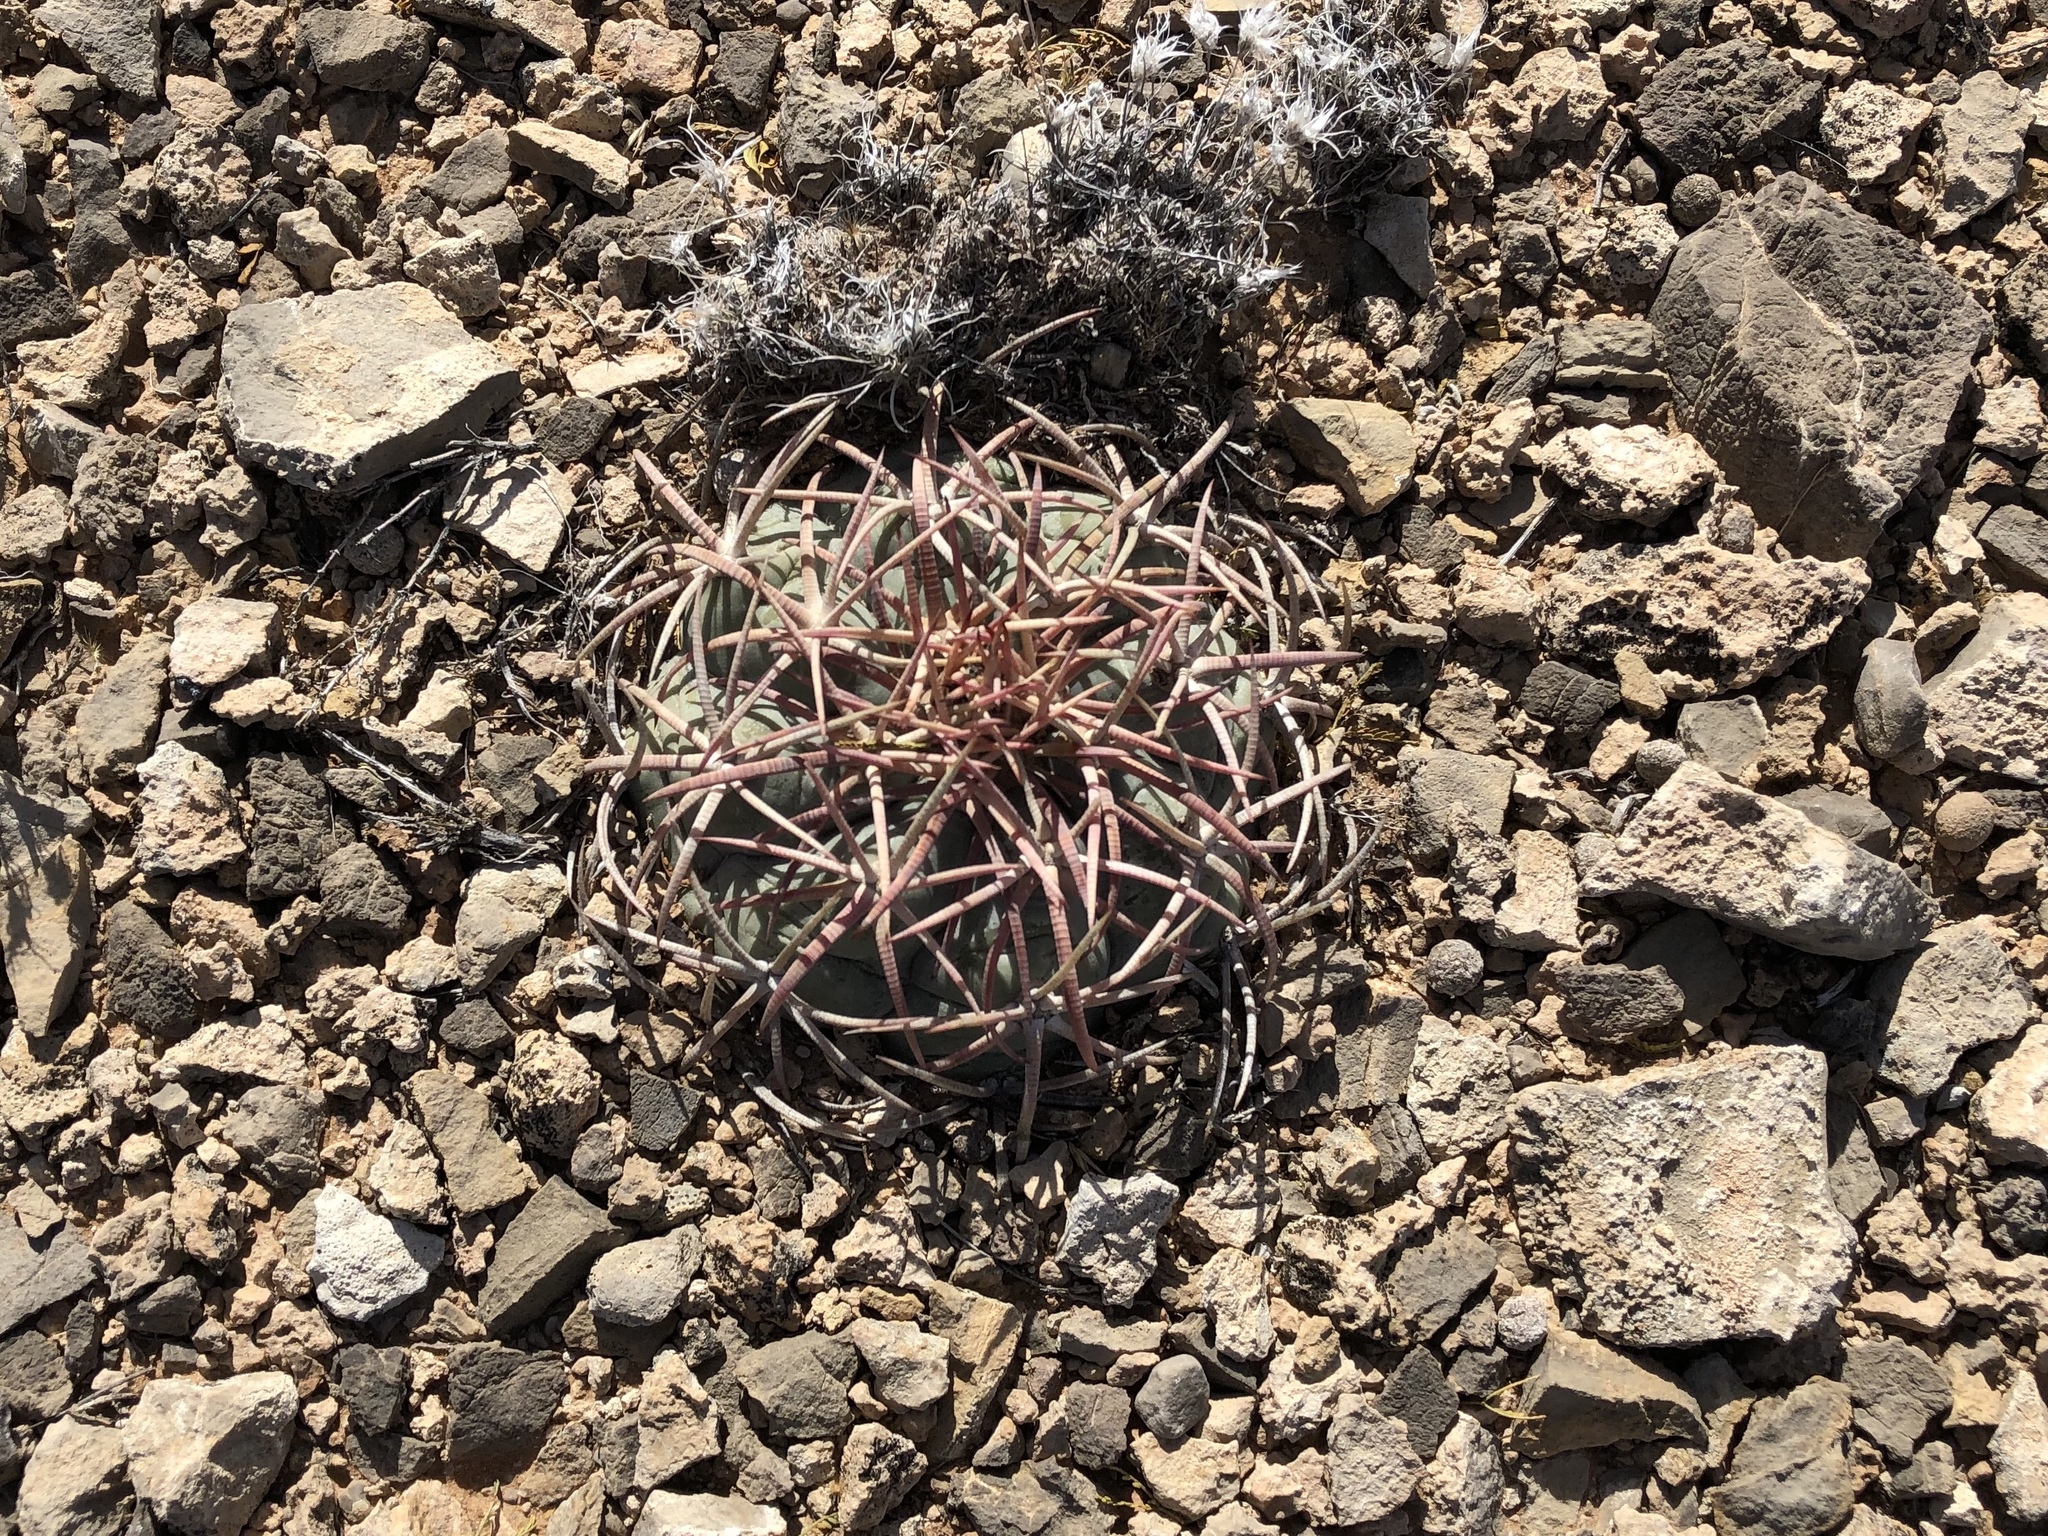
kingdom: Plantae
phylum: Tracheophyta
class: Magnoliopsida
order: Caryophyllales
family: Cactaceae
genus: Echinocactus
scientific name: Echinocactus horizonthalonius
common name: Devilshead
